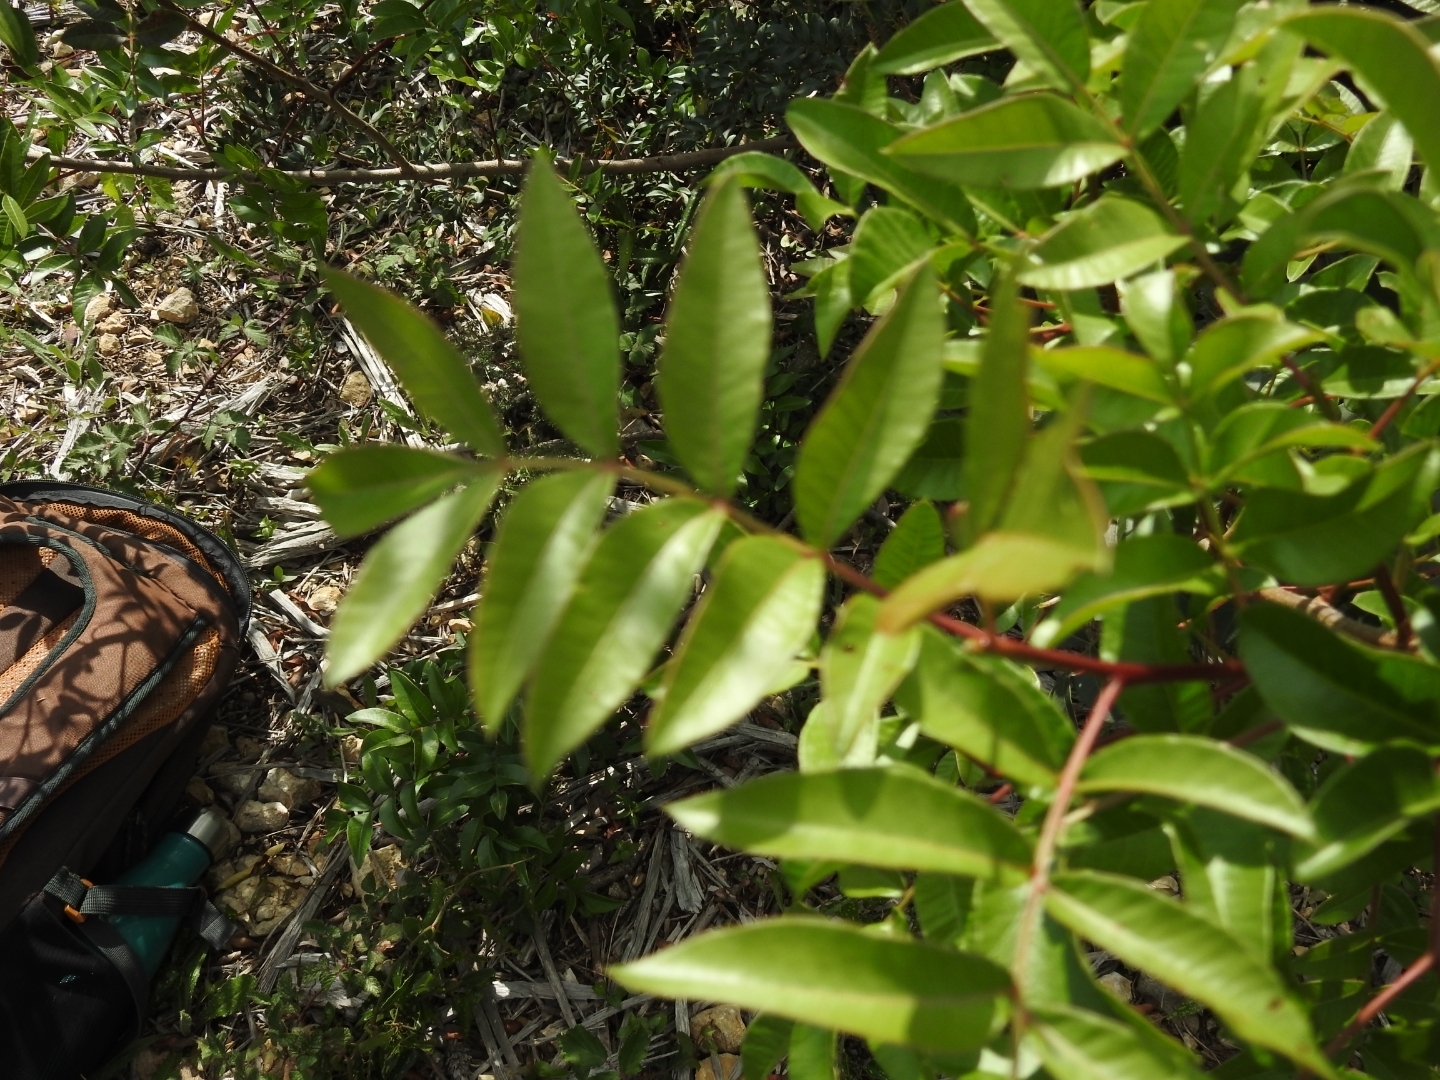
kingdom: Plantae
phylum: Tracheophyta
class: Magnoliopsida
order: Sapindales
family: Anacardiaceae
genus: Pistacia
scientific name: Pistacia saportae
